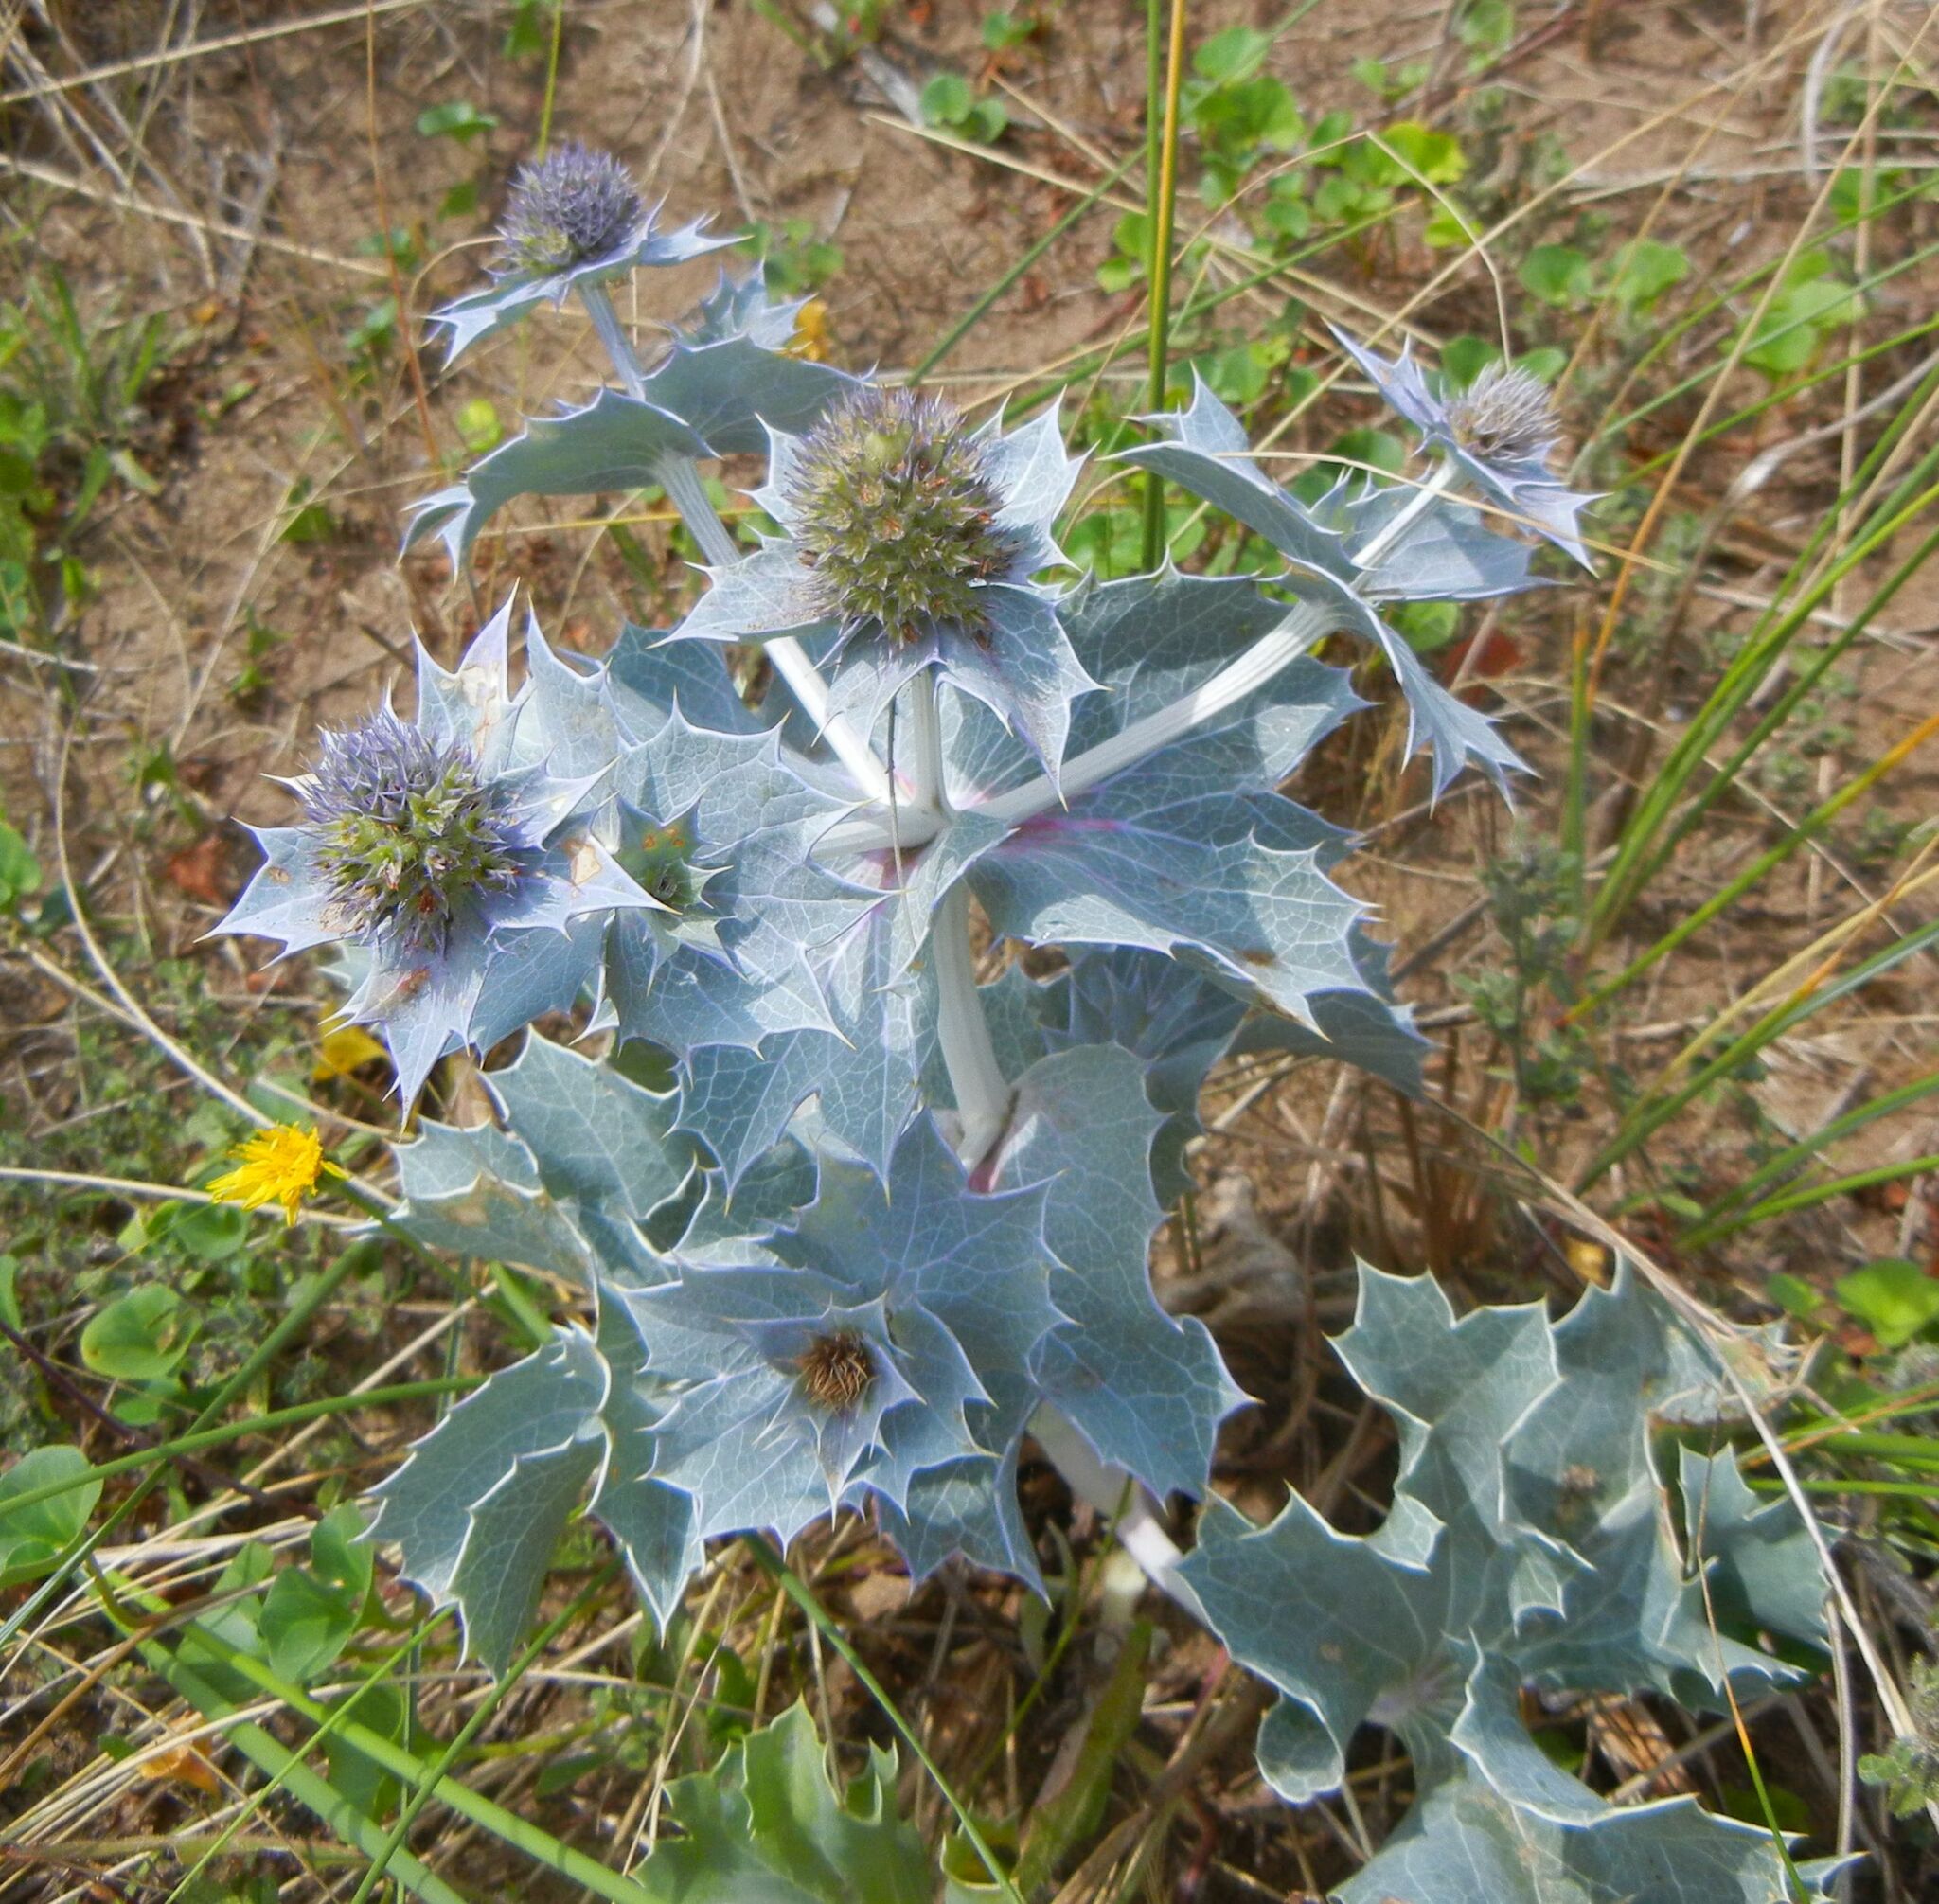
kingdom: Plantae
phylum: Tracheophyta
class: Magnoliopsida
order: Apiales
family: Apiaceae
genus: Eryngium
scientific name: Eryngium maritimum
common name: Sea-holly
